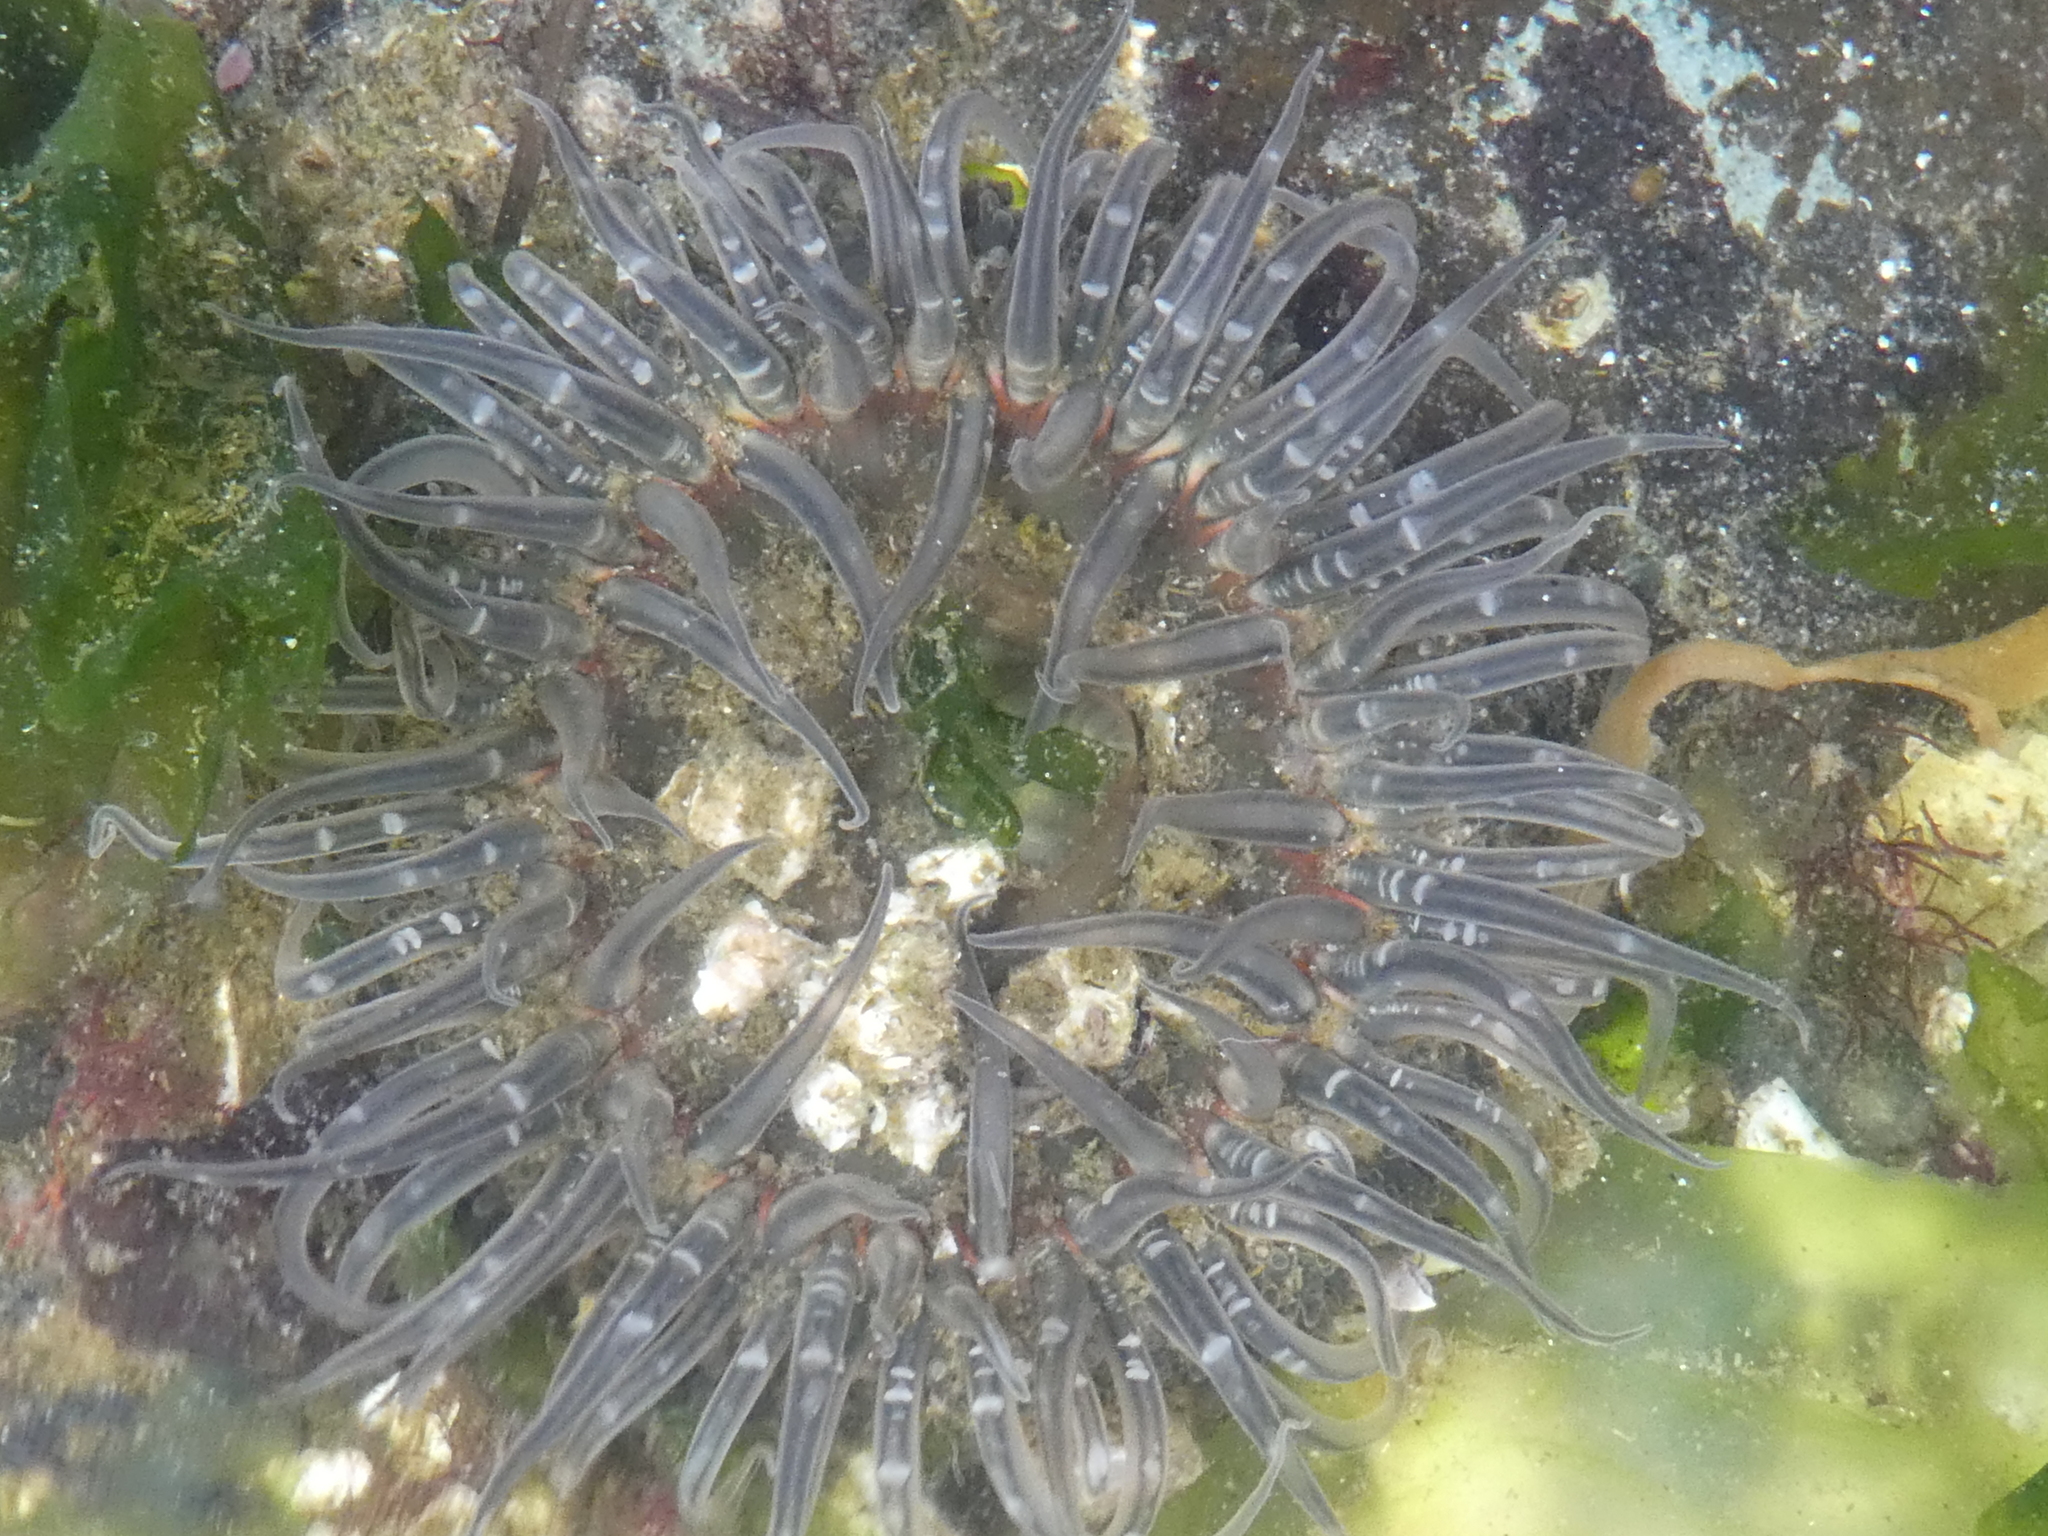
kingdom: Animalia
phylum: Cnidaria
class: Anthozoa
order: Actiniaria
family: Actiniidae
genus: Anthopleura
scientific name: Anthopleura artemisia
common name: Buried sea anemone
